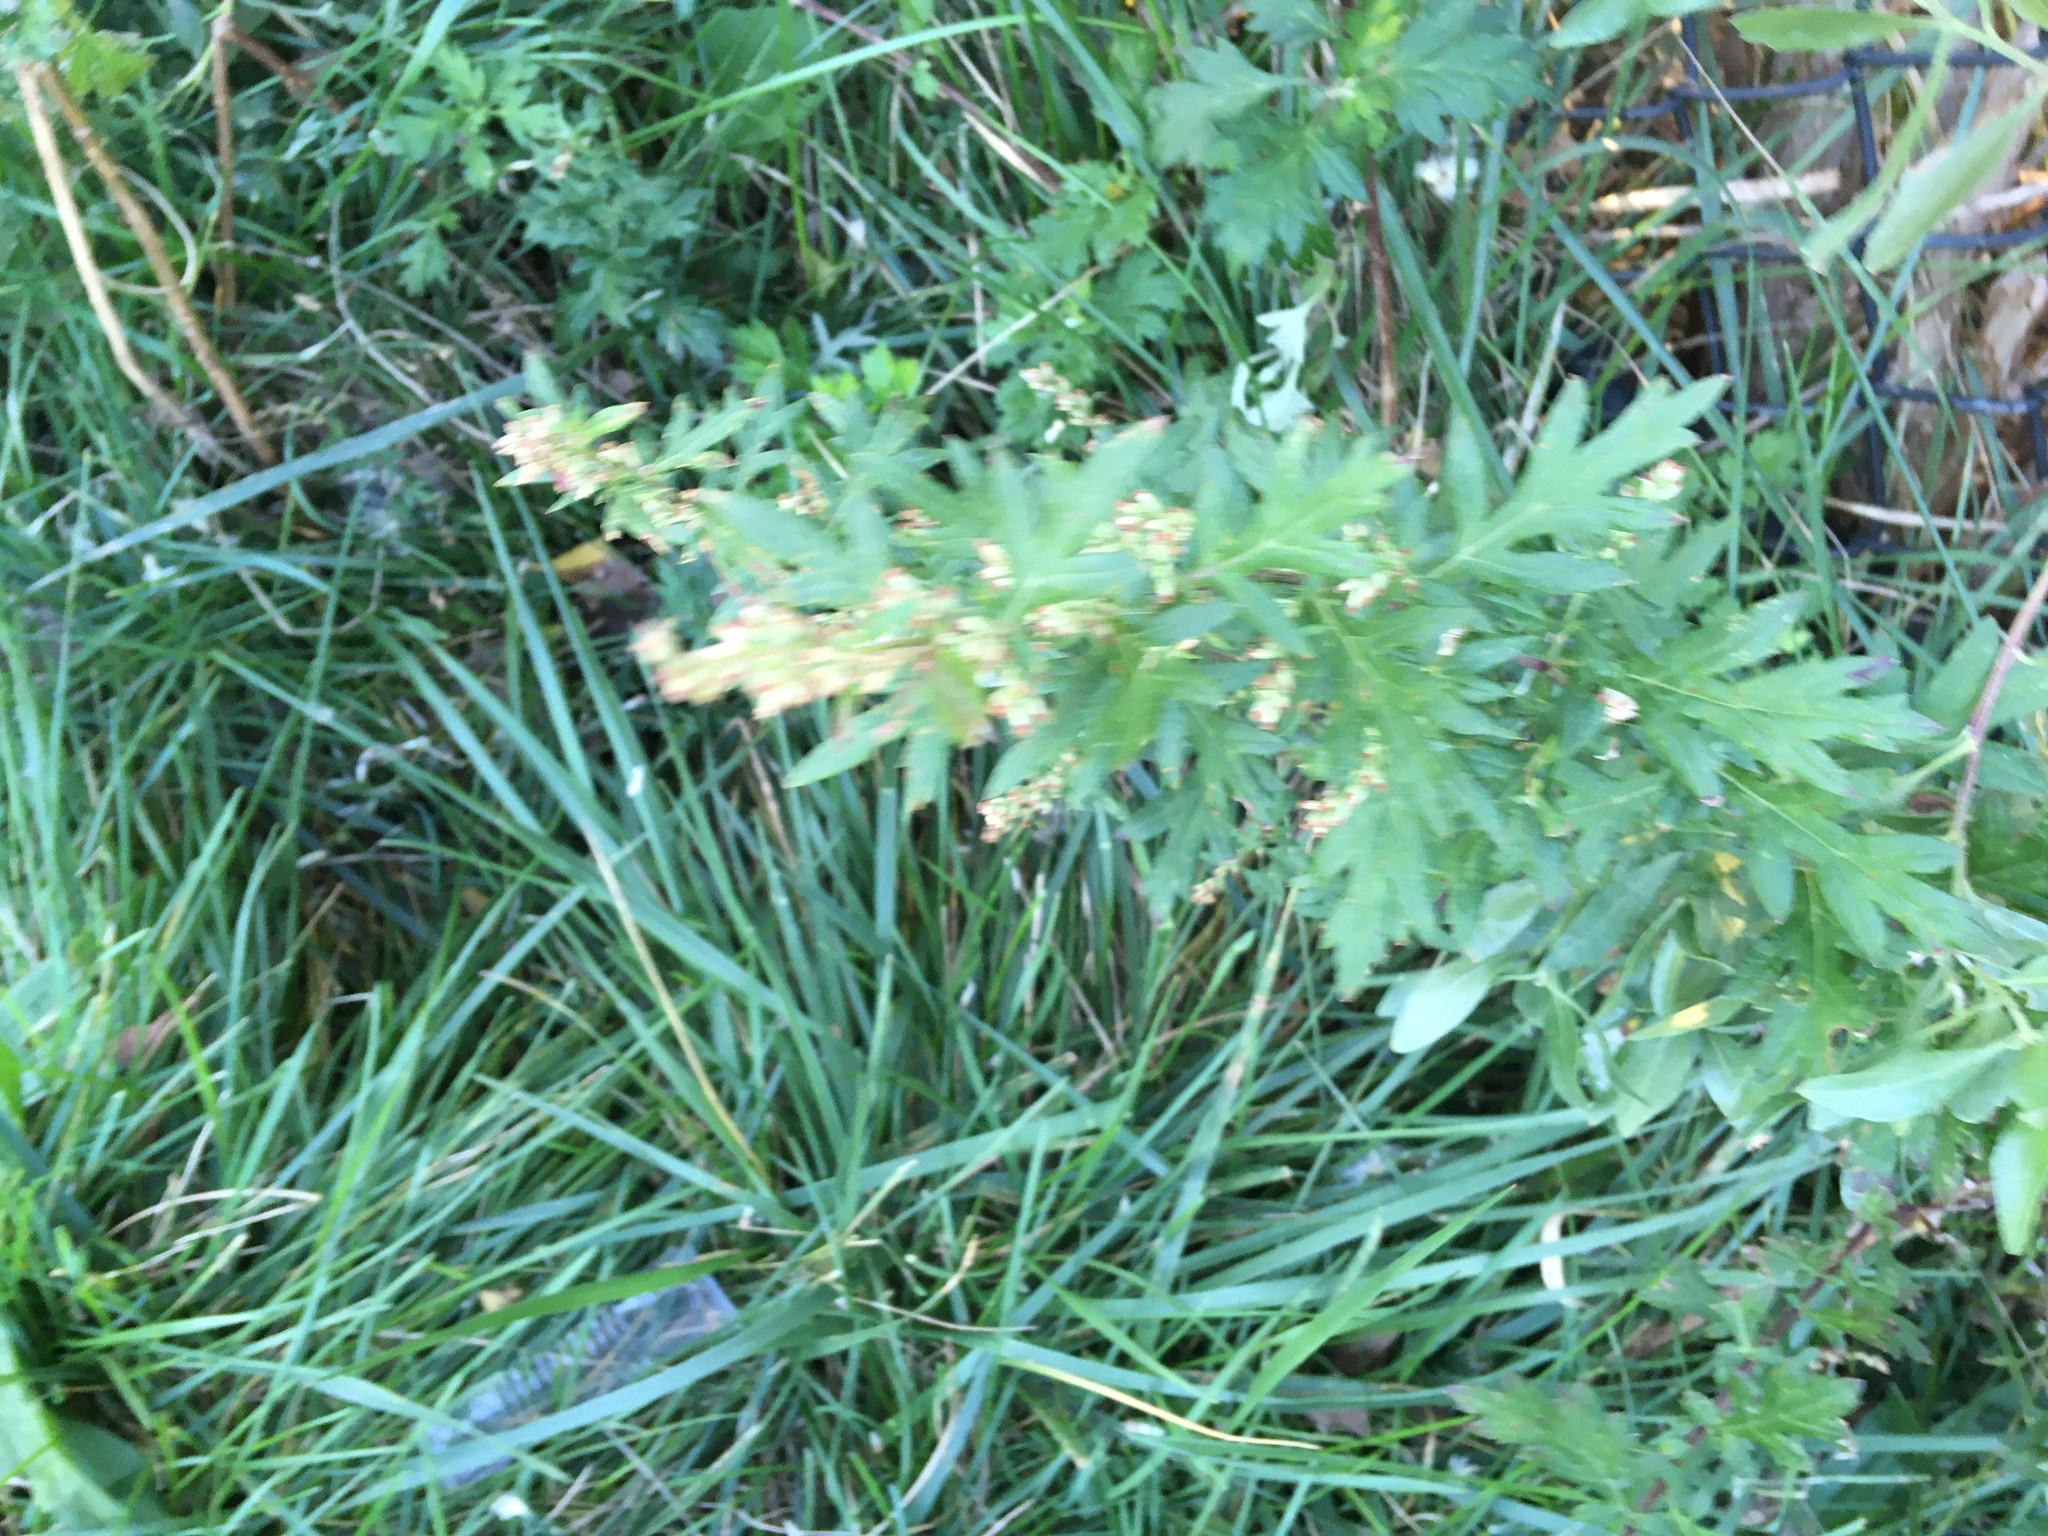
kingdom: Plantae
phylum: Tracheophyta
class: Magnoliopsida
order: Asterales
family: Asteraceae
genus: Artemisia
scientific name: Artemisia vulgaris
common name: Mugwort
